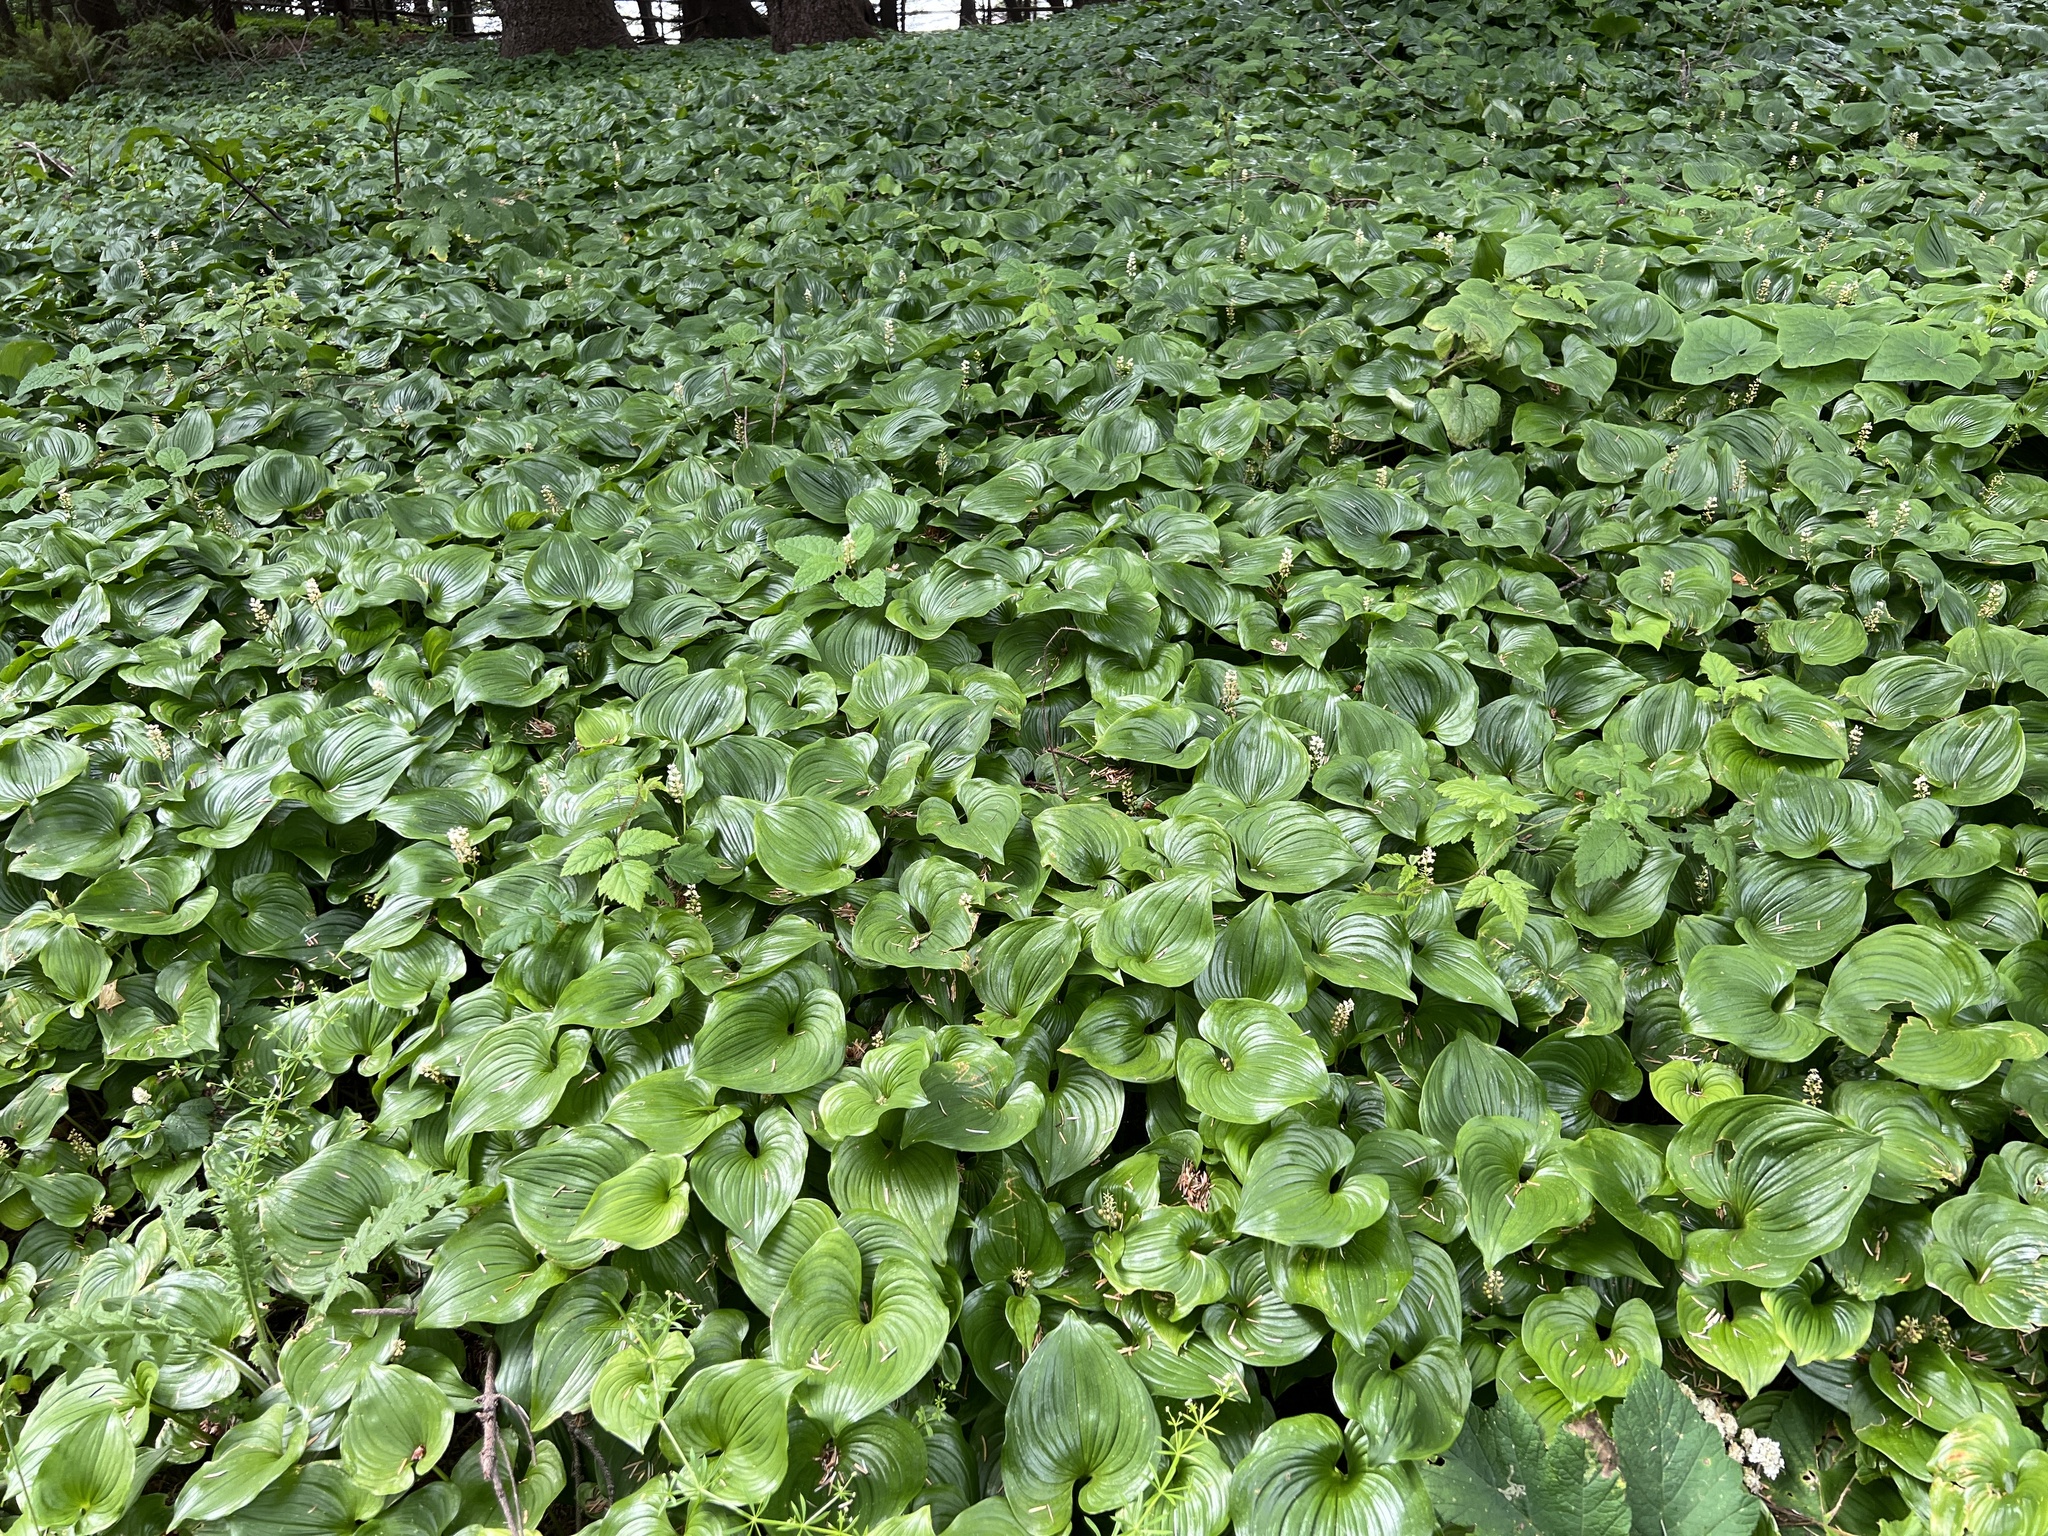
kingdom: Plantae
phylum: Tracheophyta
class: Liliopsida
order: Asparagales
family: Asparagaceae
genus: Maianthemum
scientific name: Maianthemum dilatatum
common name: False lily-of-the-valley
